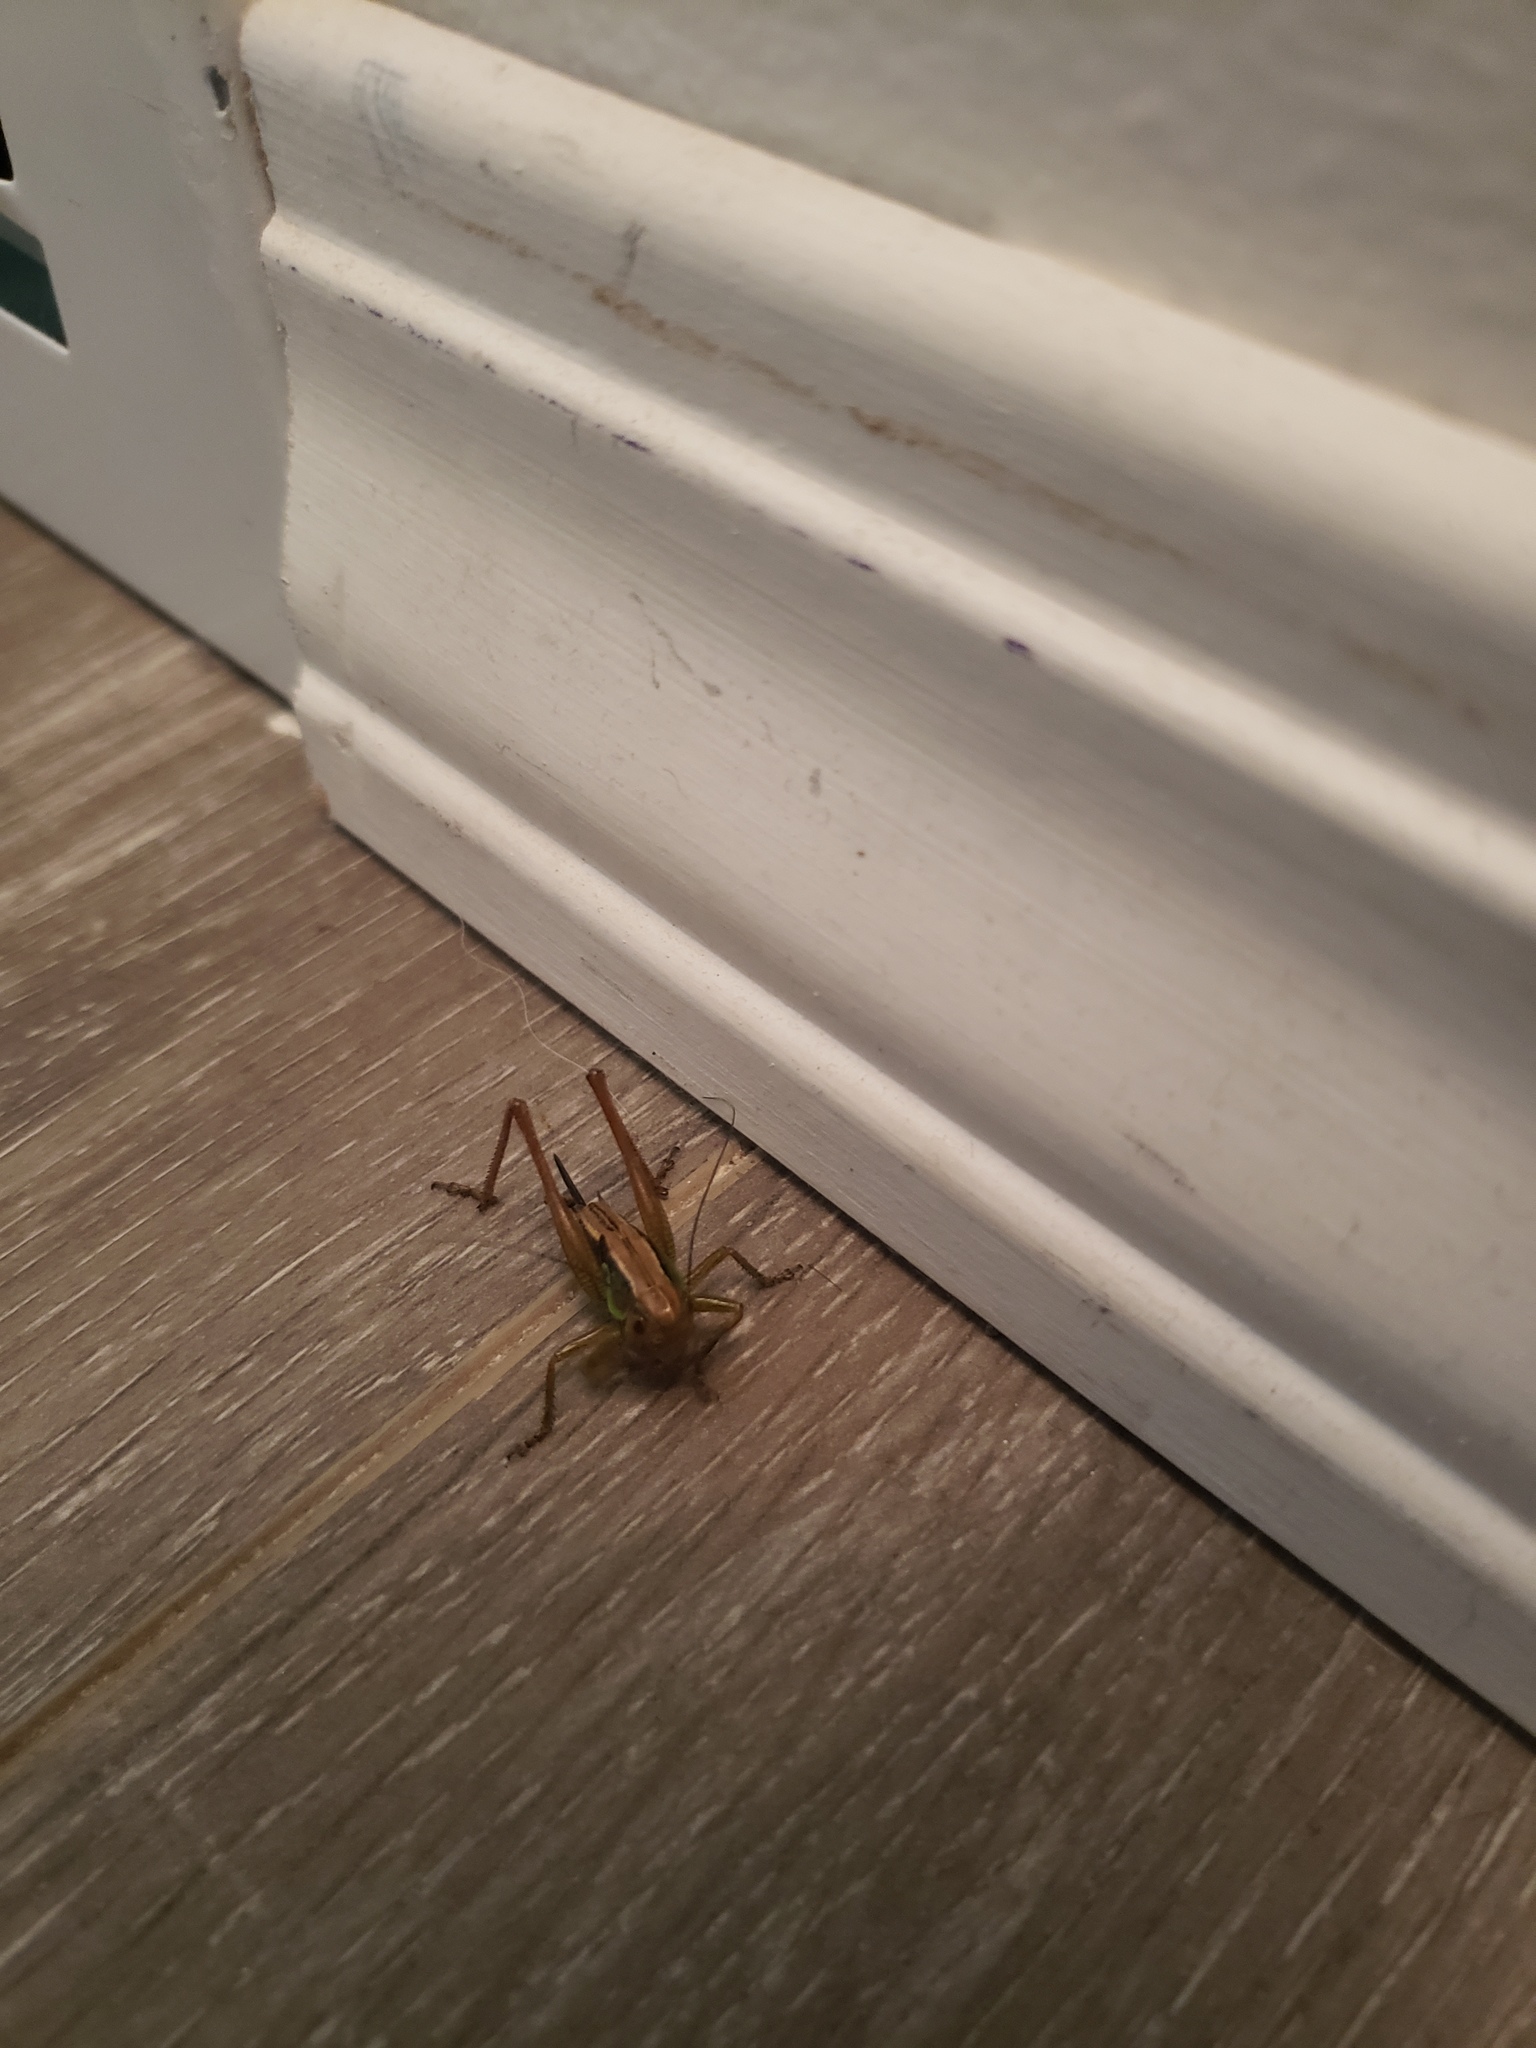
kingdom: Animalia
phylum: Arthropoda
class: Insecta
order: Orthoptera
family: Tettigoniidae
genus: Roeseliana
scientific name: Roeseliana roeselii
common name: Roesel's bush cricket
